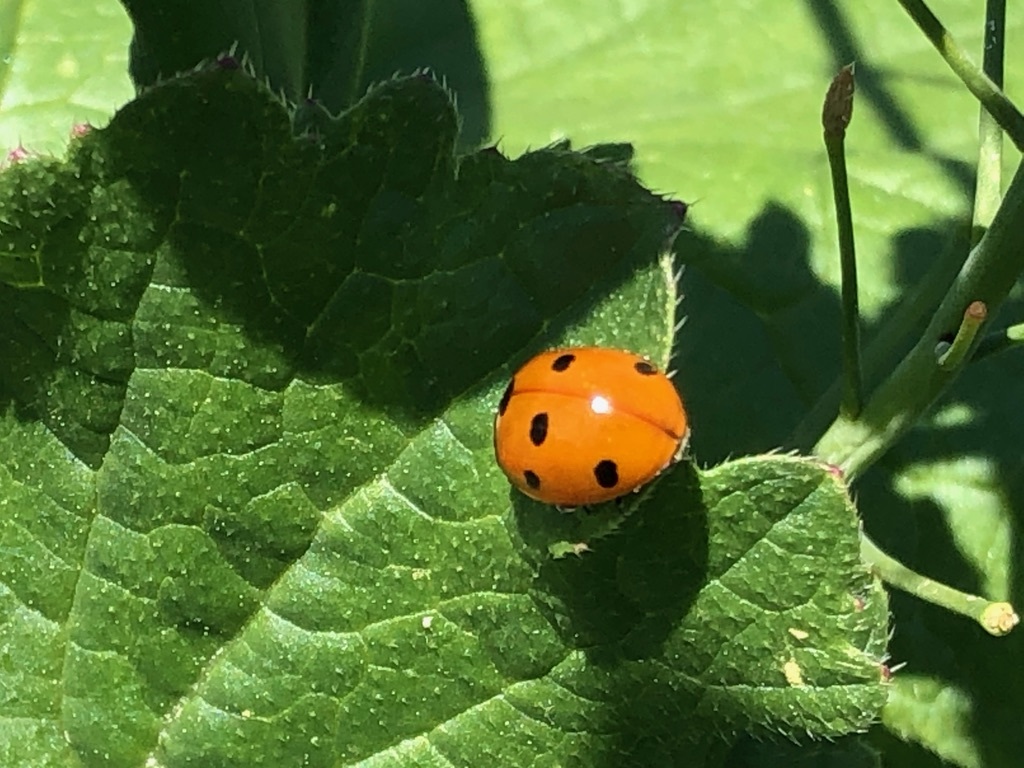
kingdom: Animalia
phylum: Arthropoda
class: Insecta
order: Coleoptera
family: Coccinellidae
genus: Coccinella
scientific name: Coccinella septempunctata
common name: Sevenspotted lady beetle
